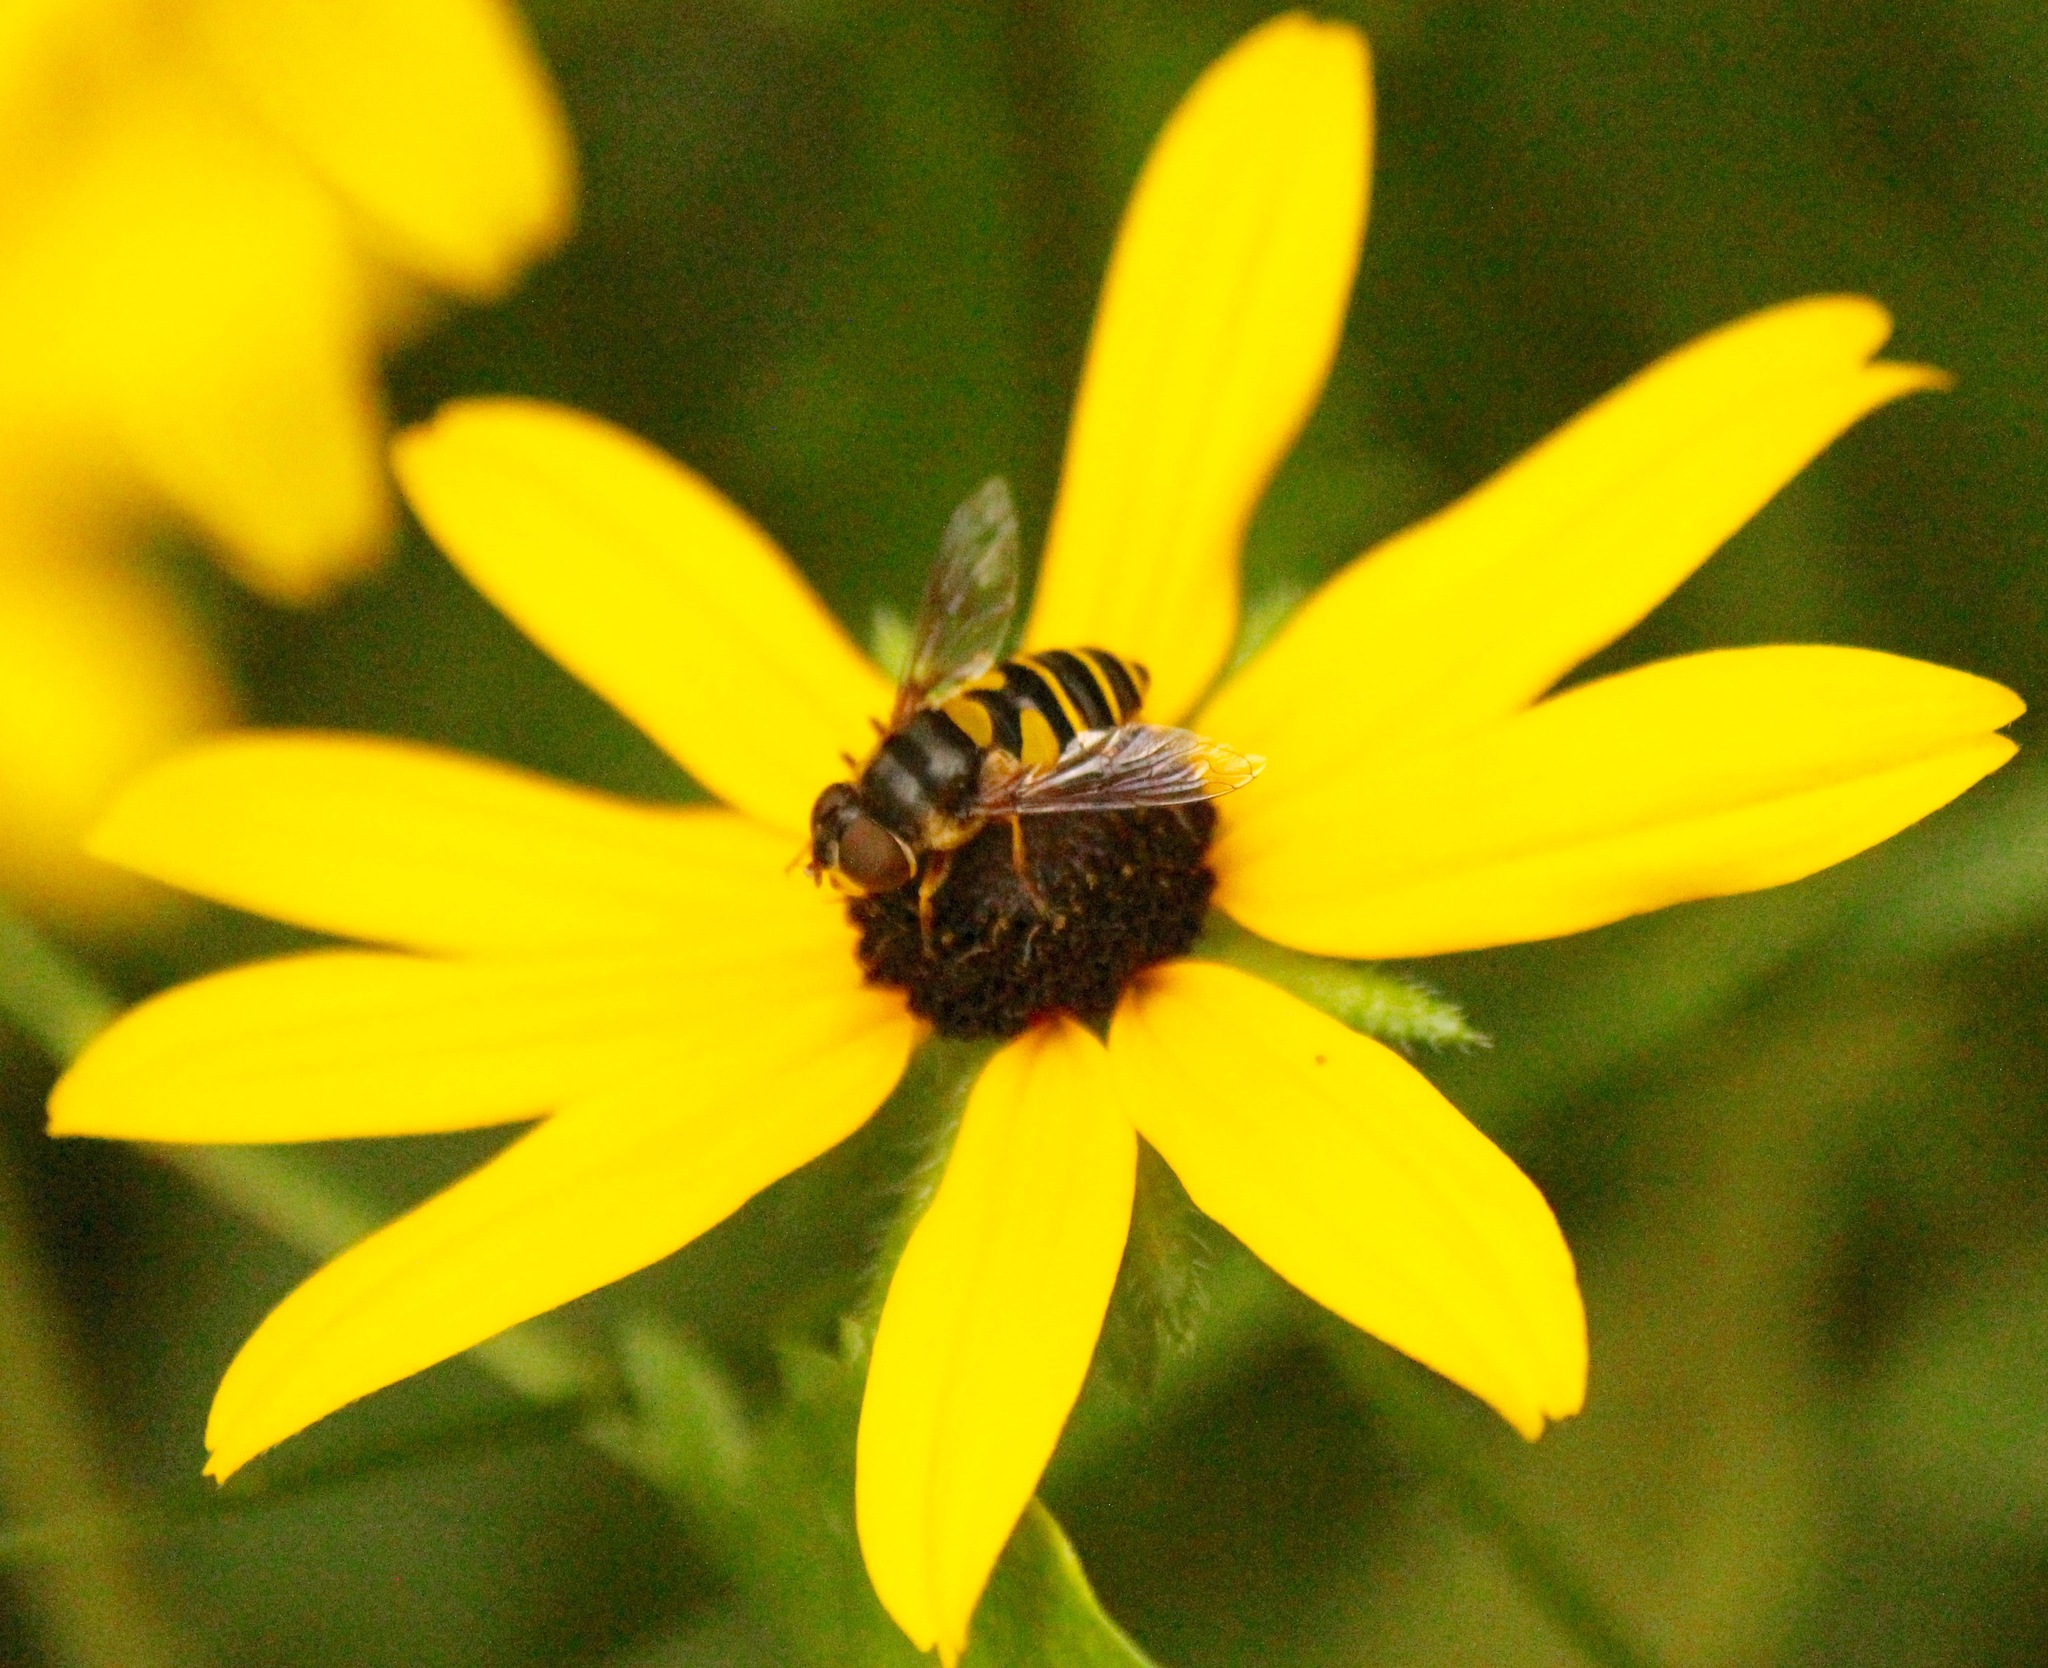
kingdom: Animalia
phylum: Arthropoda
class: Insecta
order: Diptera
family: Syrphidae
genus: Eristalis
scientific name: Eristalis transversa
